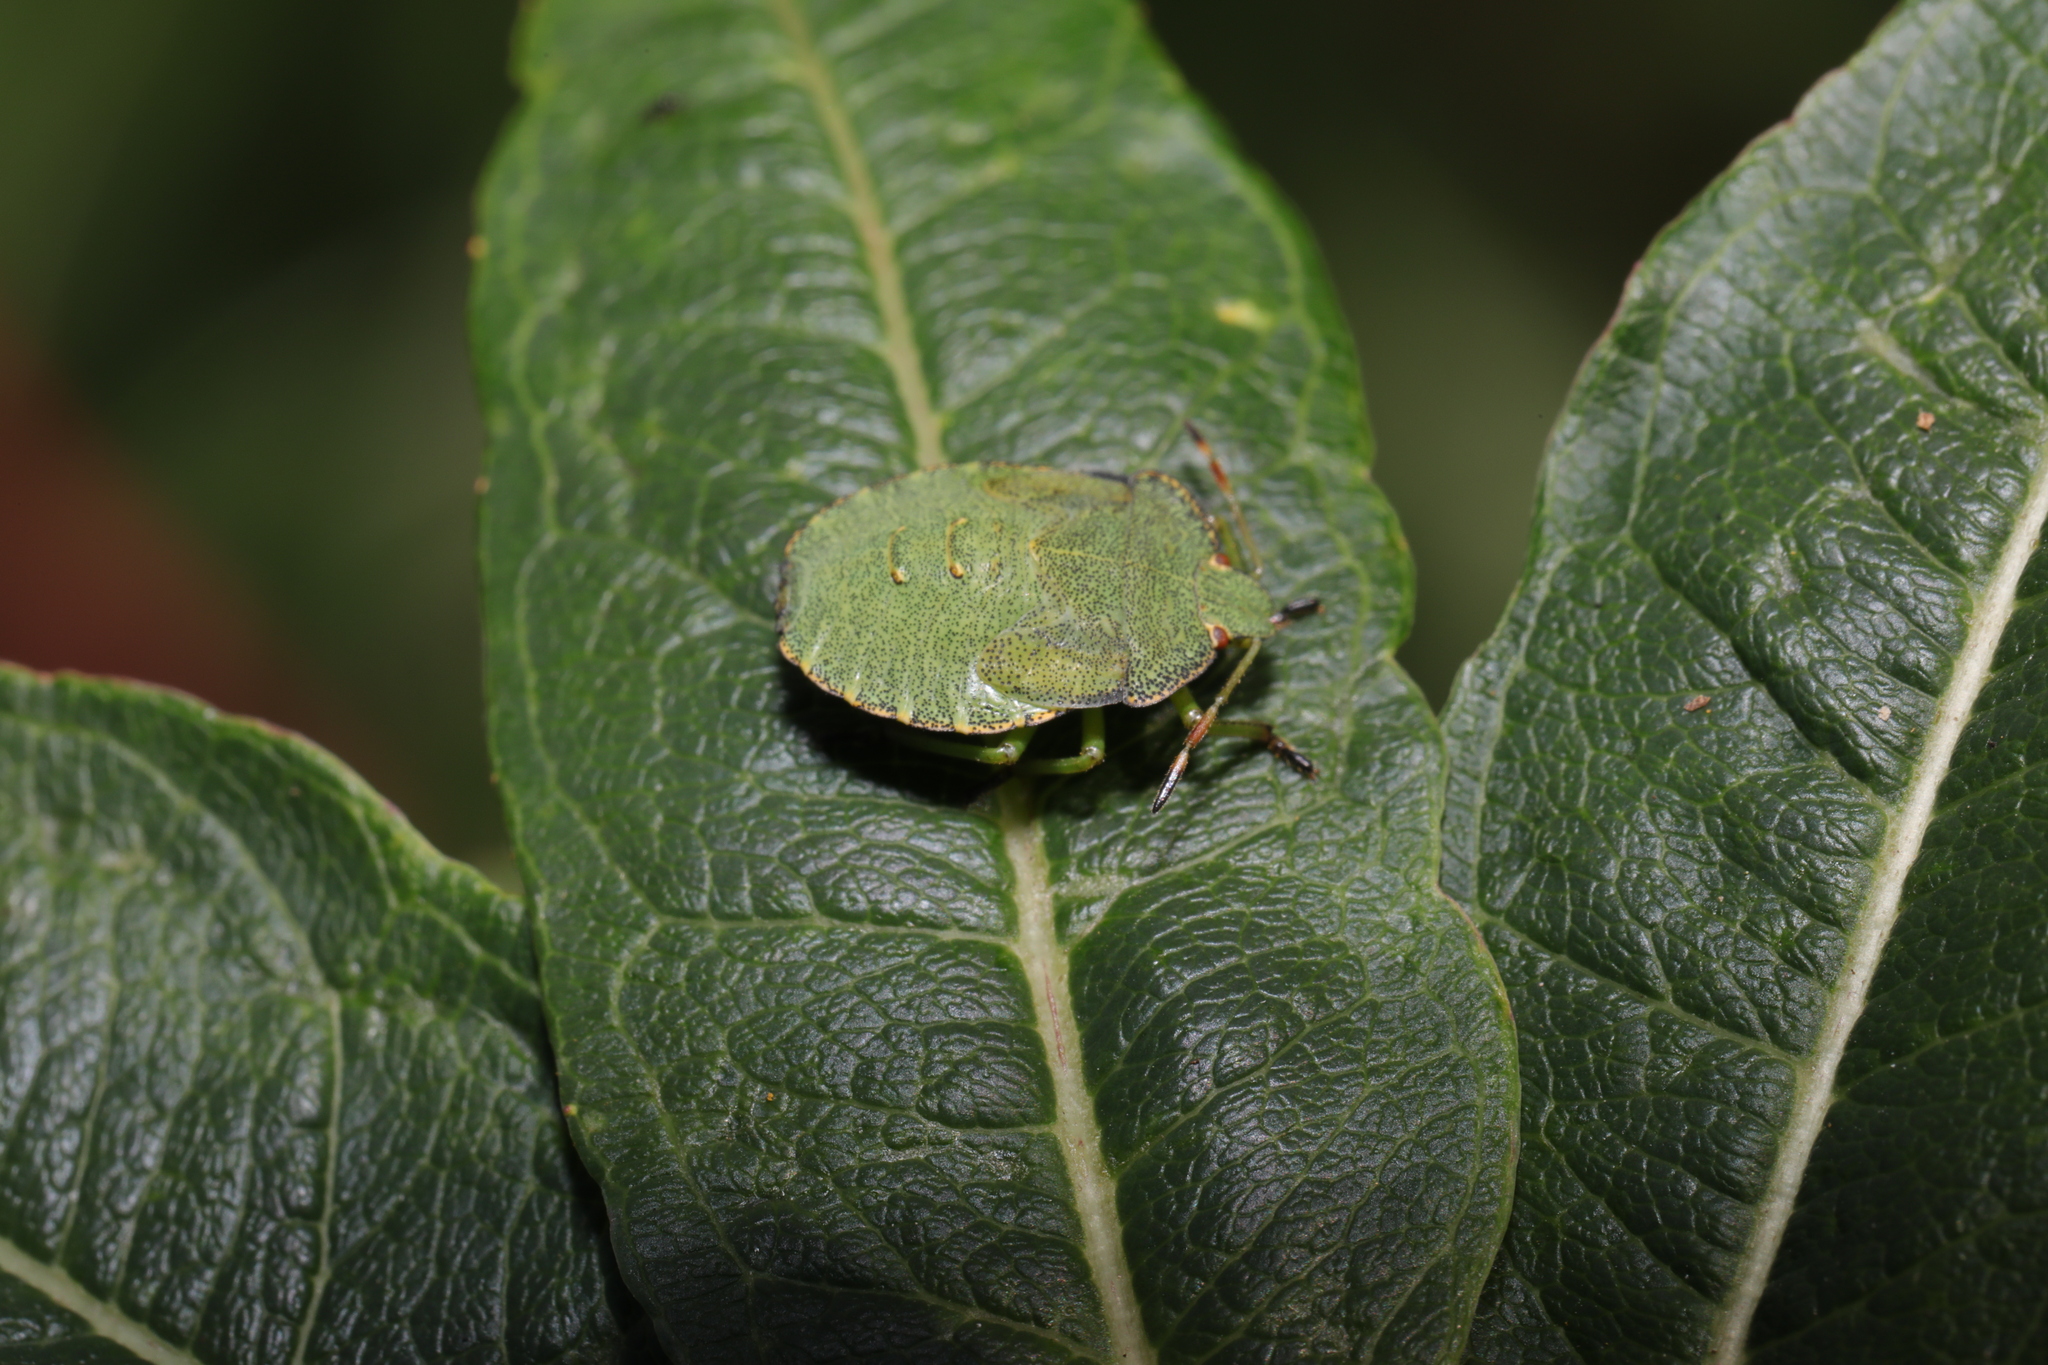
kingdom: Animalia
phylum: Arthropoda
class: Insecta
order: Hemiptera
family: Pentatomidae
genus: Palomena
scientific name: Palomena prasina
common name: Green shieldbug
